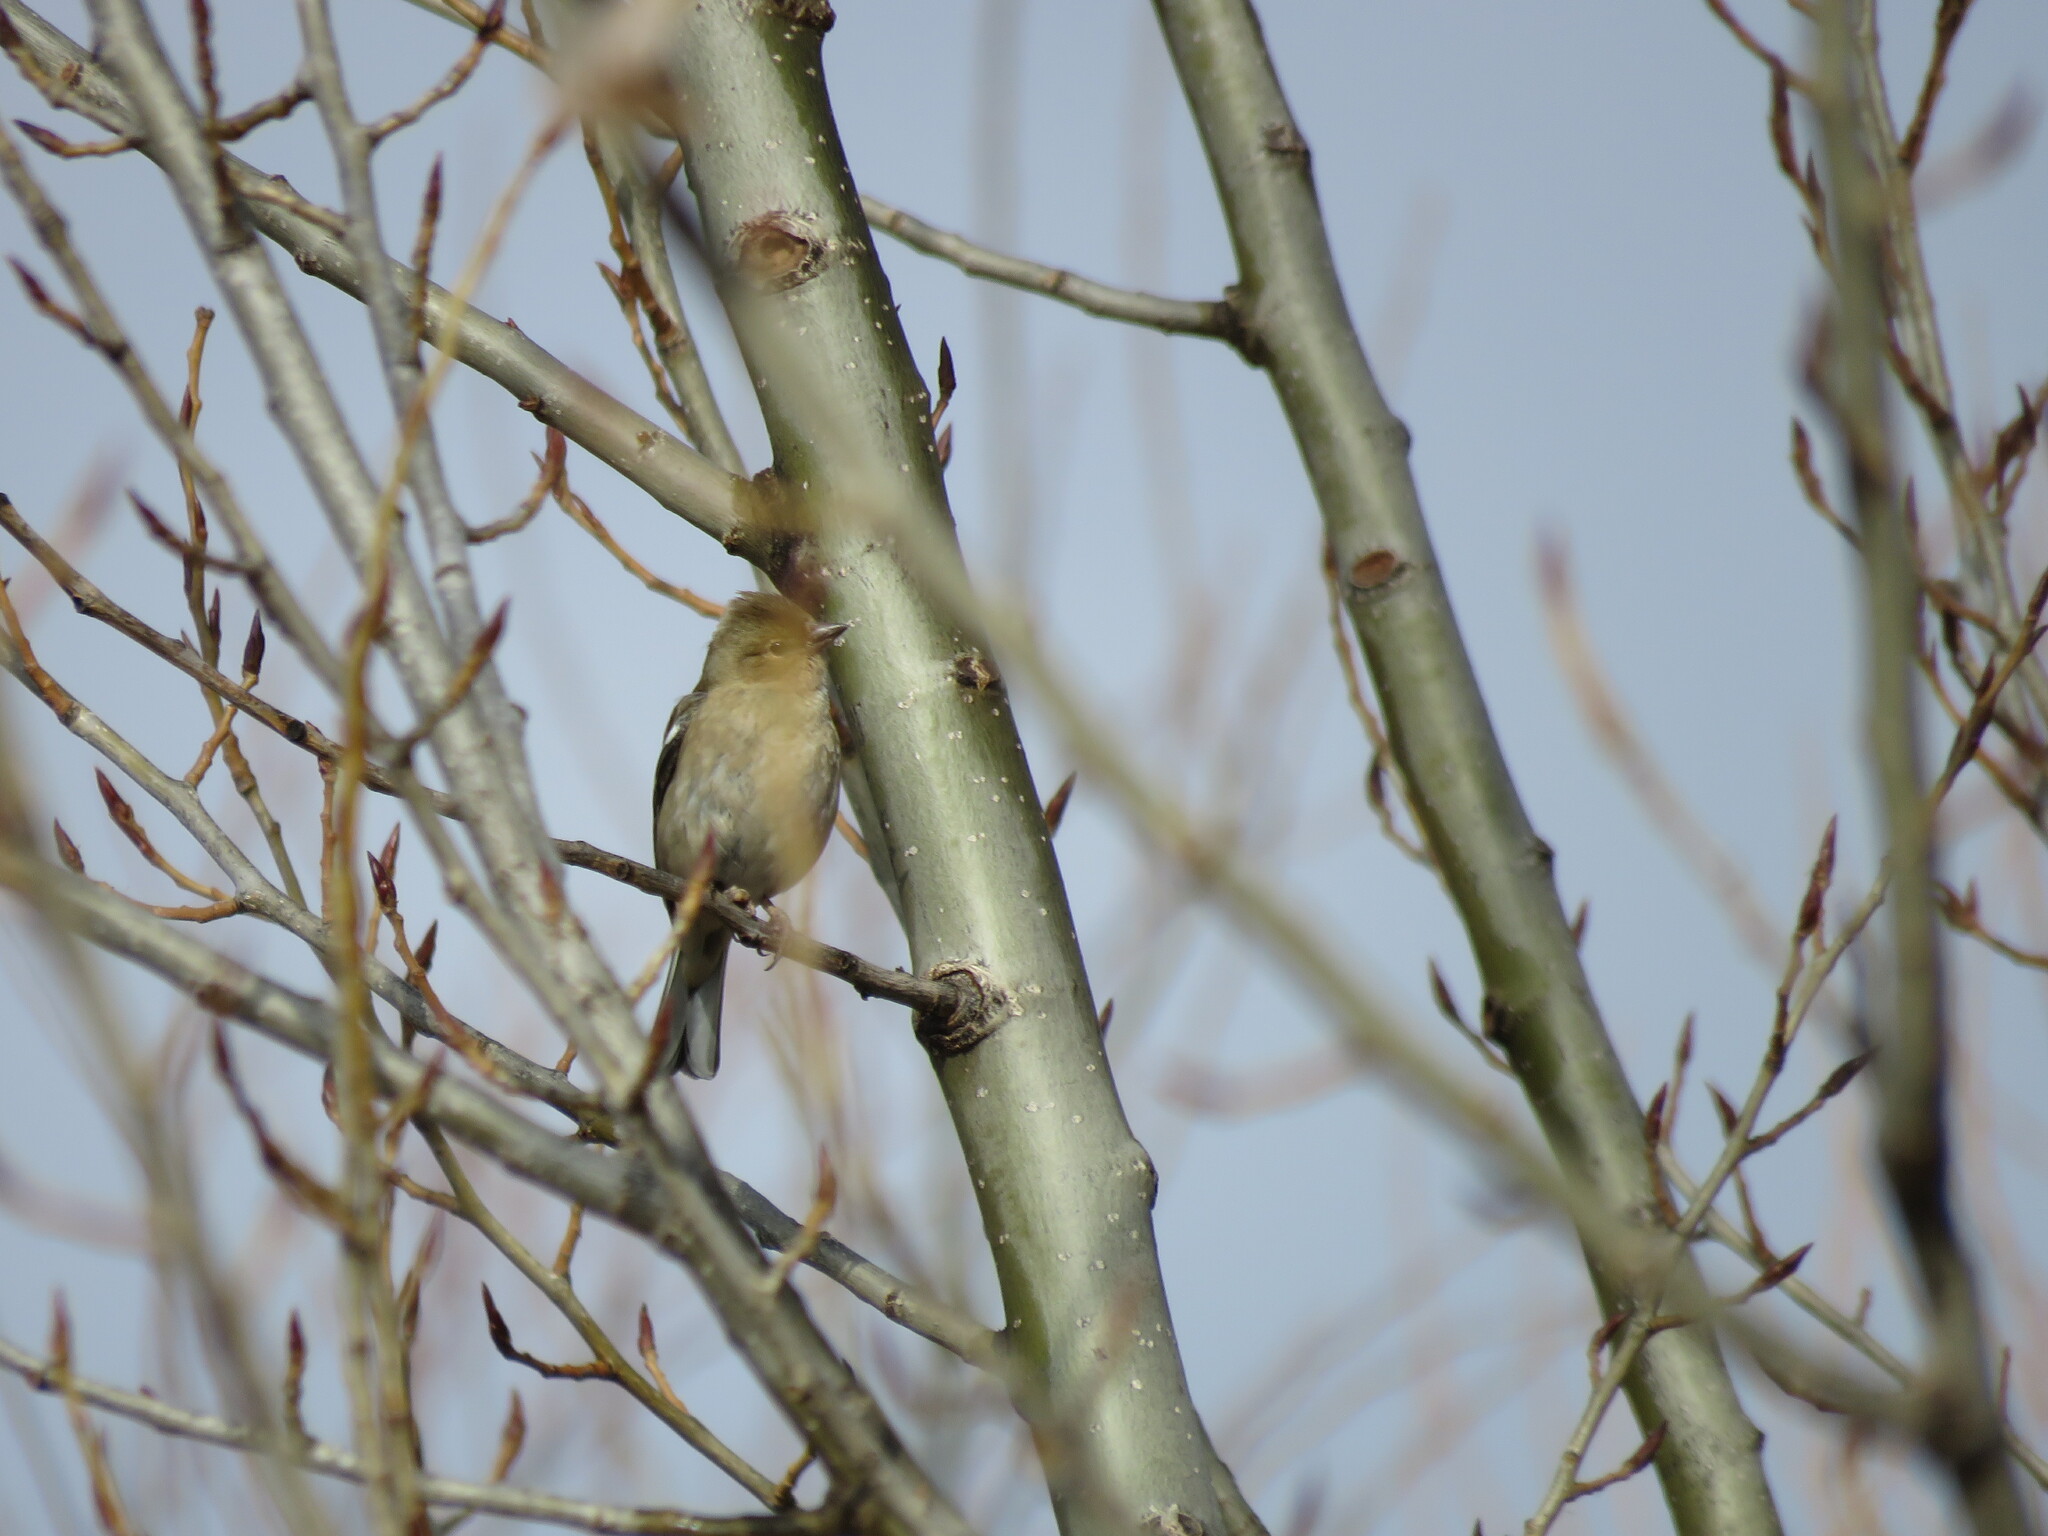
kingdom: Animalia
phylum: Chordata
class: Aves
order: Passeriformes
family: Fringillidae
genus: Fringilla
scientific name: Fringilla coelebs
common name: Common chaffinch
